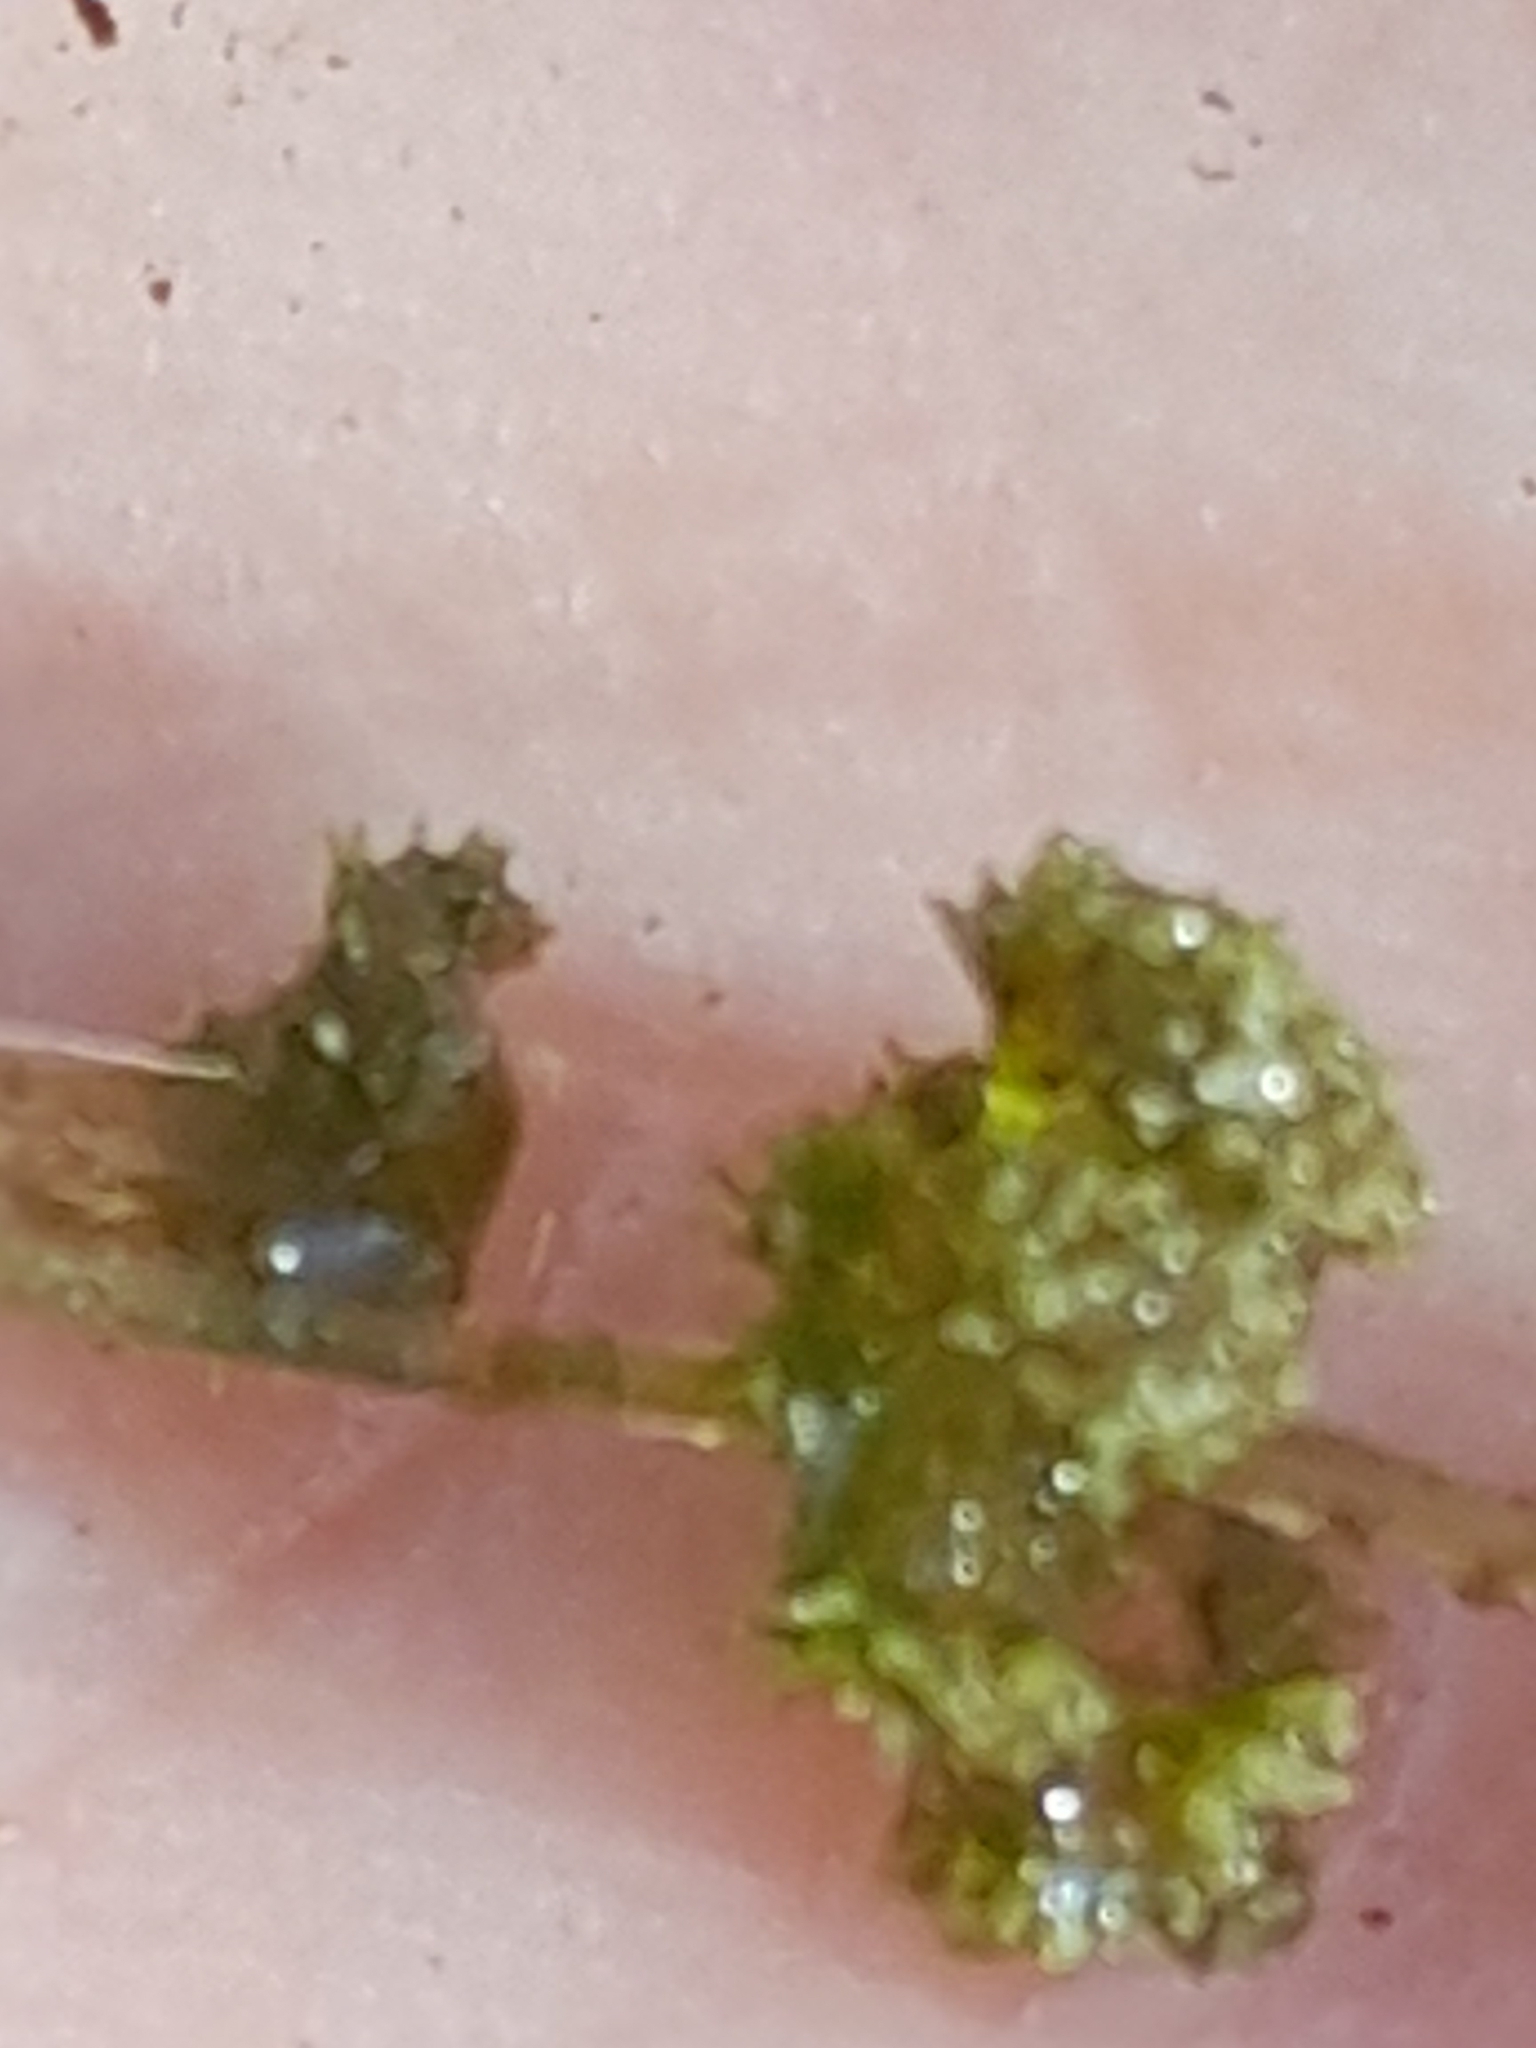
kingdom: Plantae
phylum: Charophyta
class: Charophyceae
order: Charales
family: Characeae
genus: Nitella
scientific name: Nitella hyalina
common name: Many-branched stonewort
